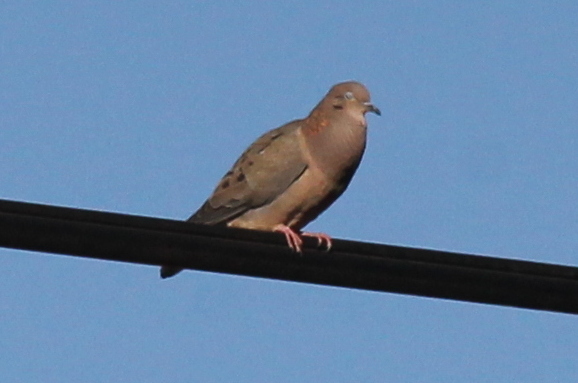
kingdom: Animalia
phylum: Chordata
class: Aves
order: Columbiformes
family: Columbidae
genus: Zenaida
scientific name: Zenaida auriculata
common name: Eared dove
